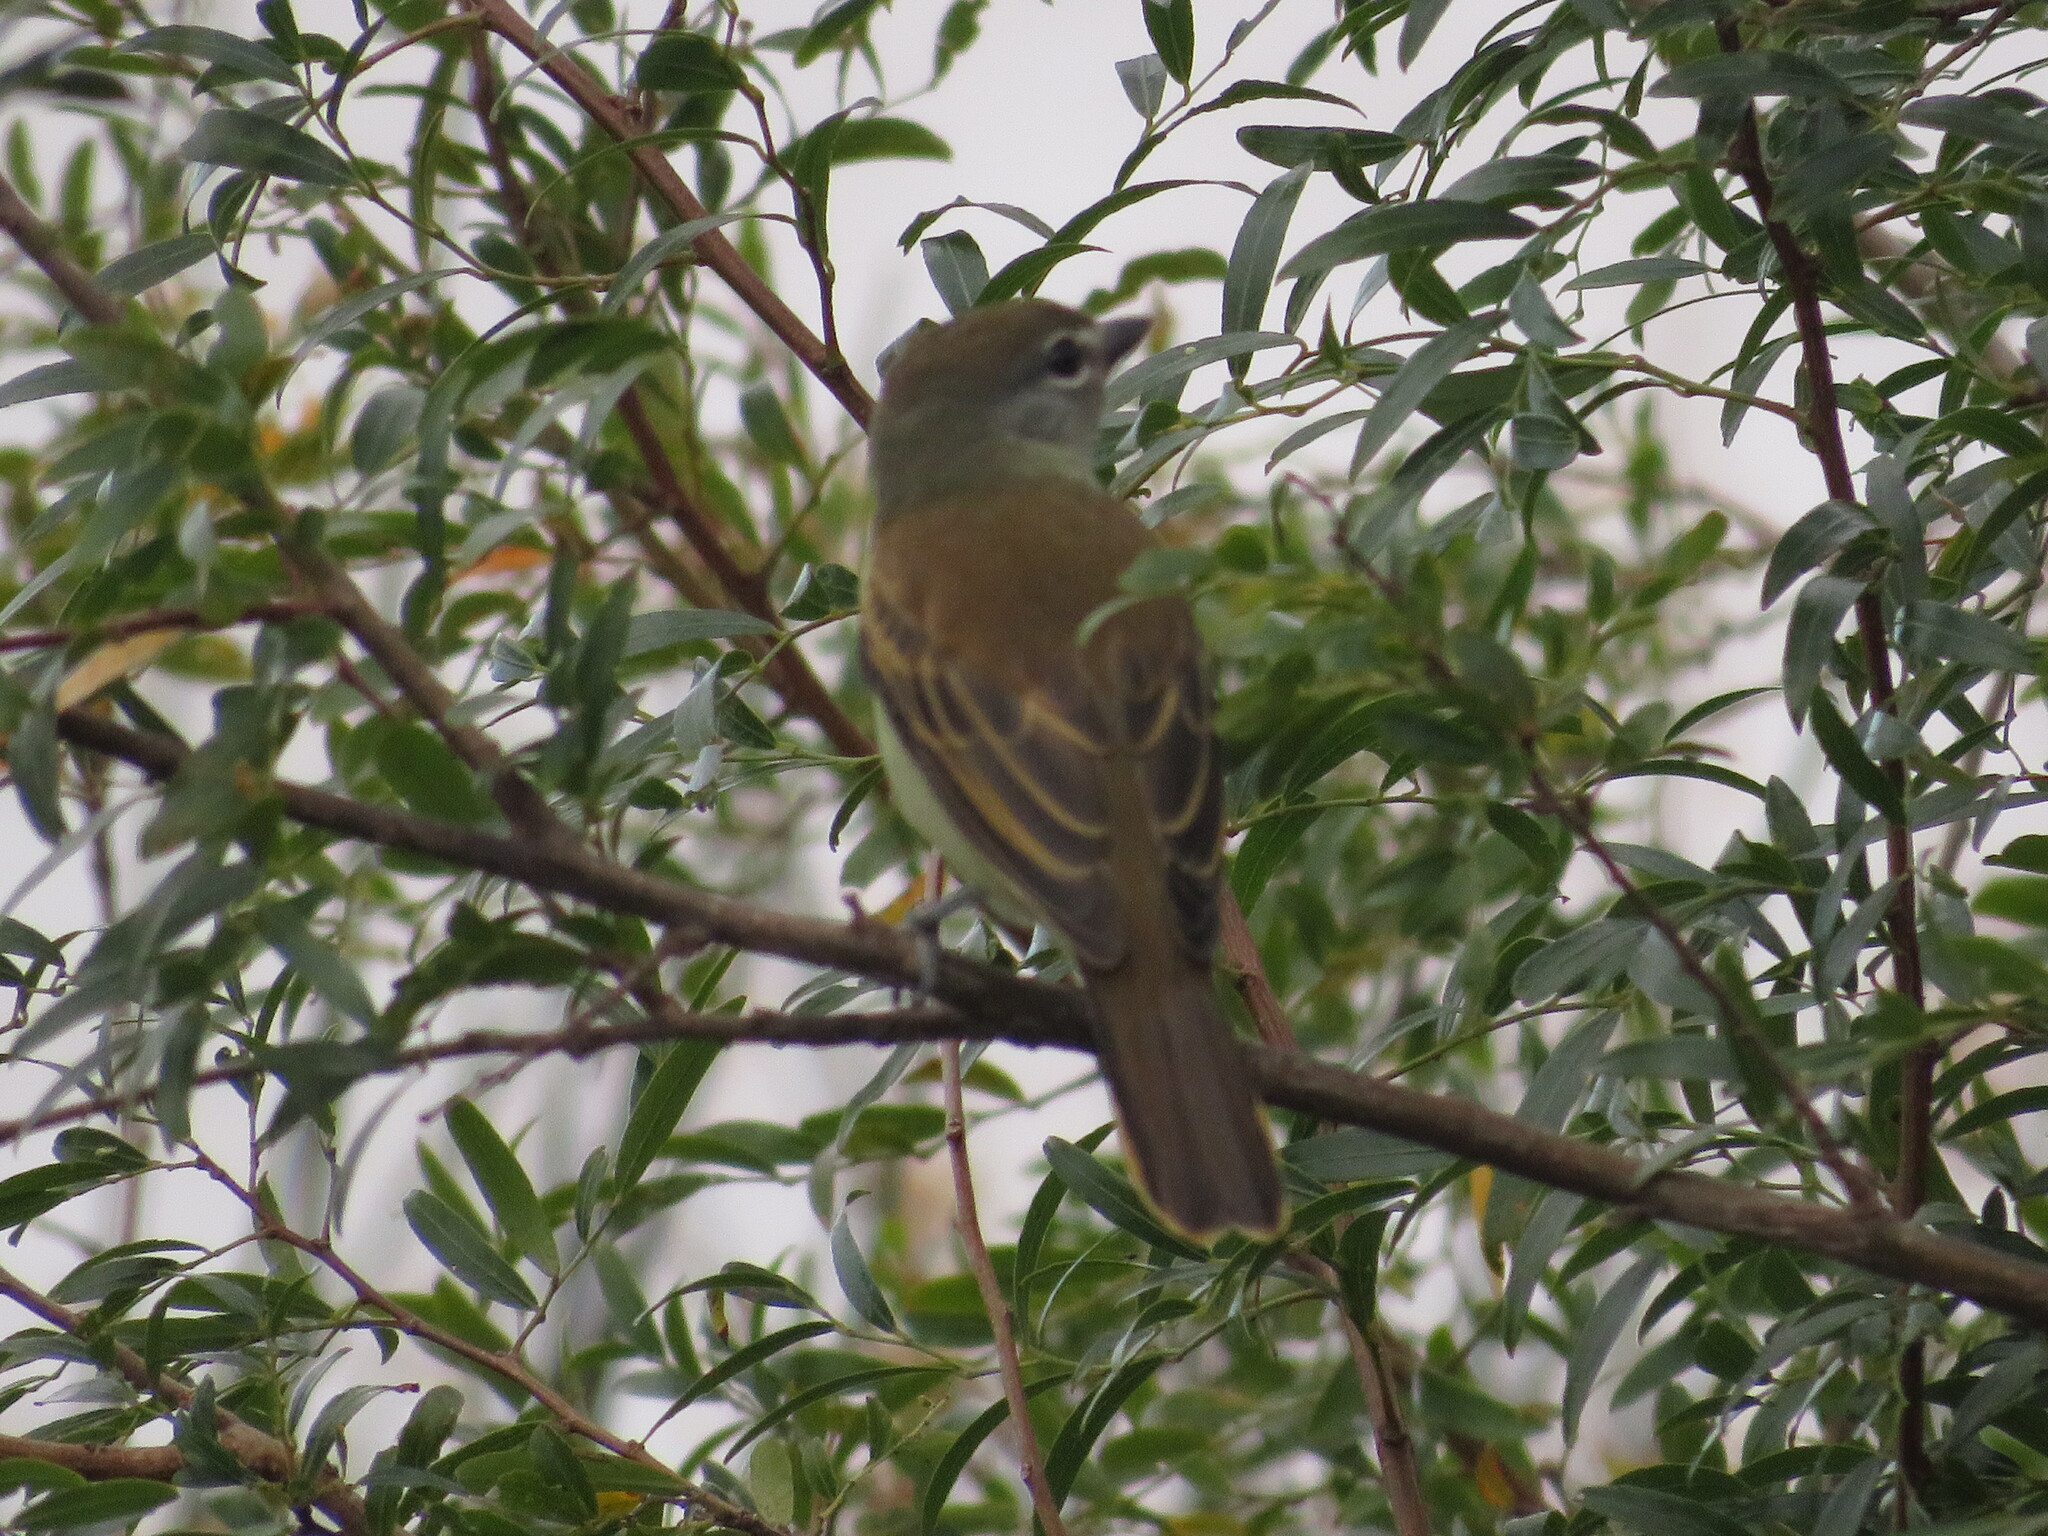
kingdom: Animalia
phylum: Chordata
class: Aves
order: Passeriformes
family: Cotingidae
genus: Pachyramphus
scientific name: Pachyramphus polychopterus
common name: White-winged becard
